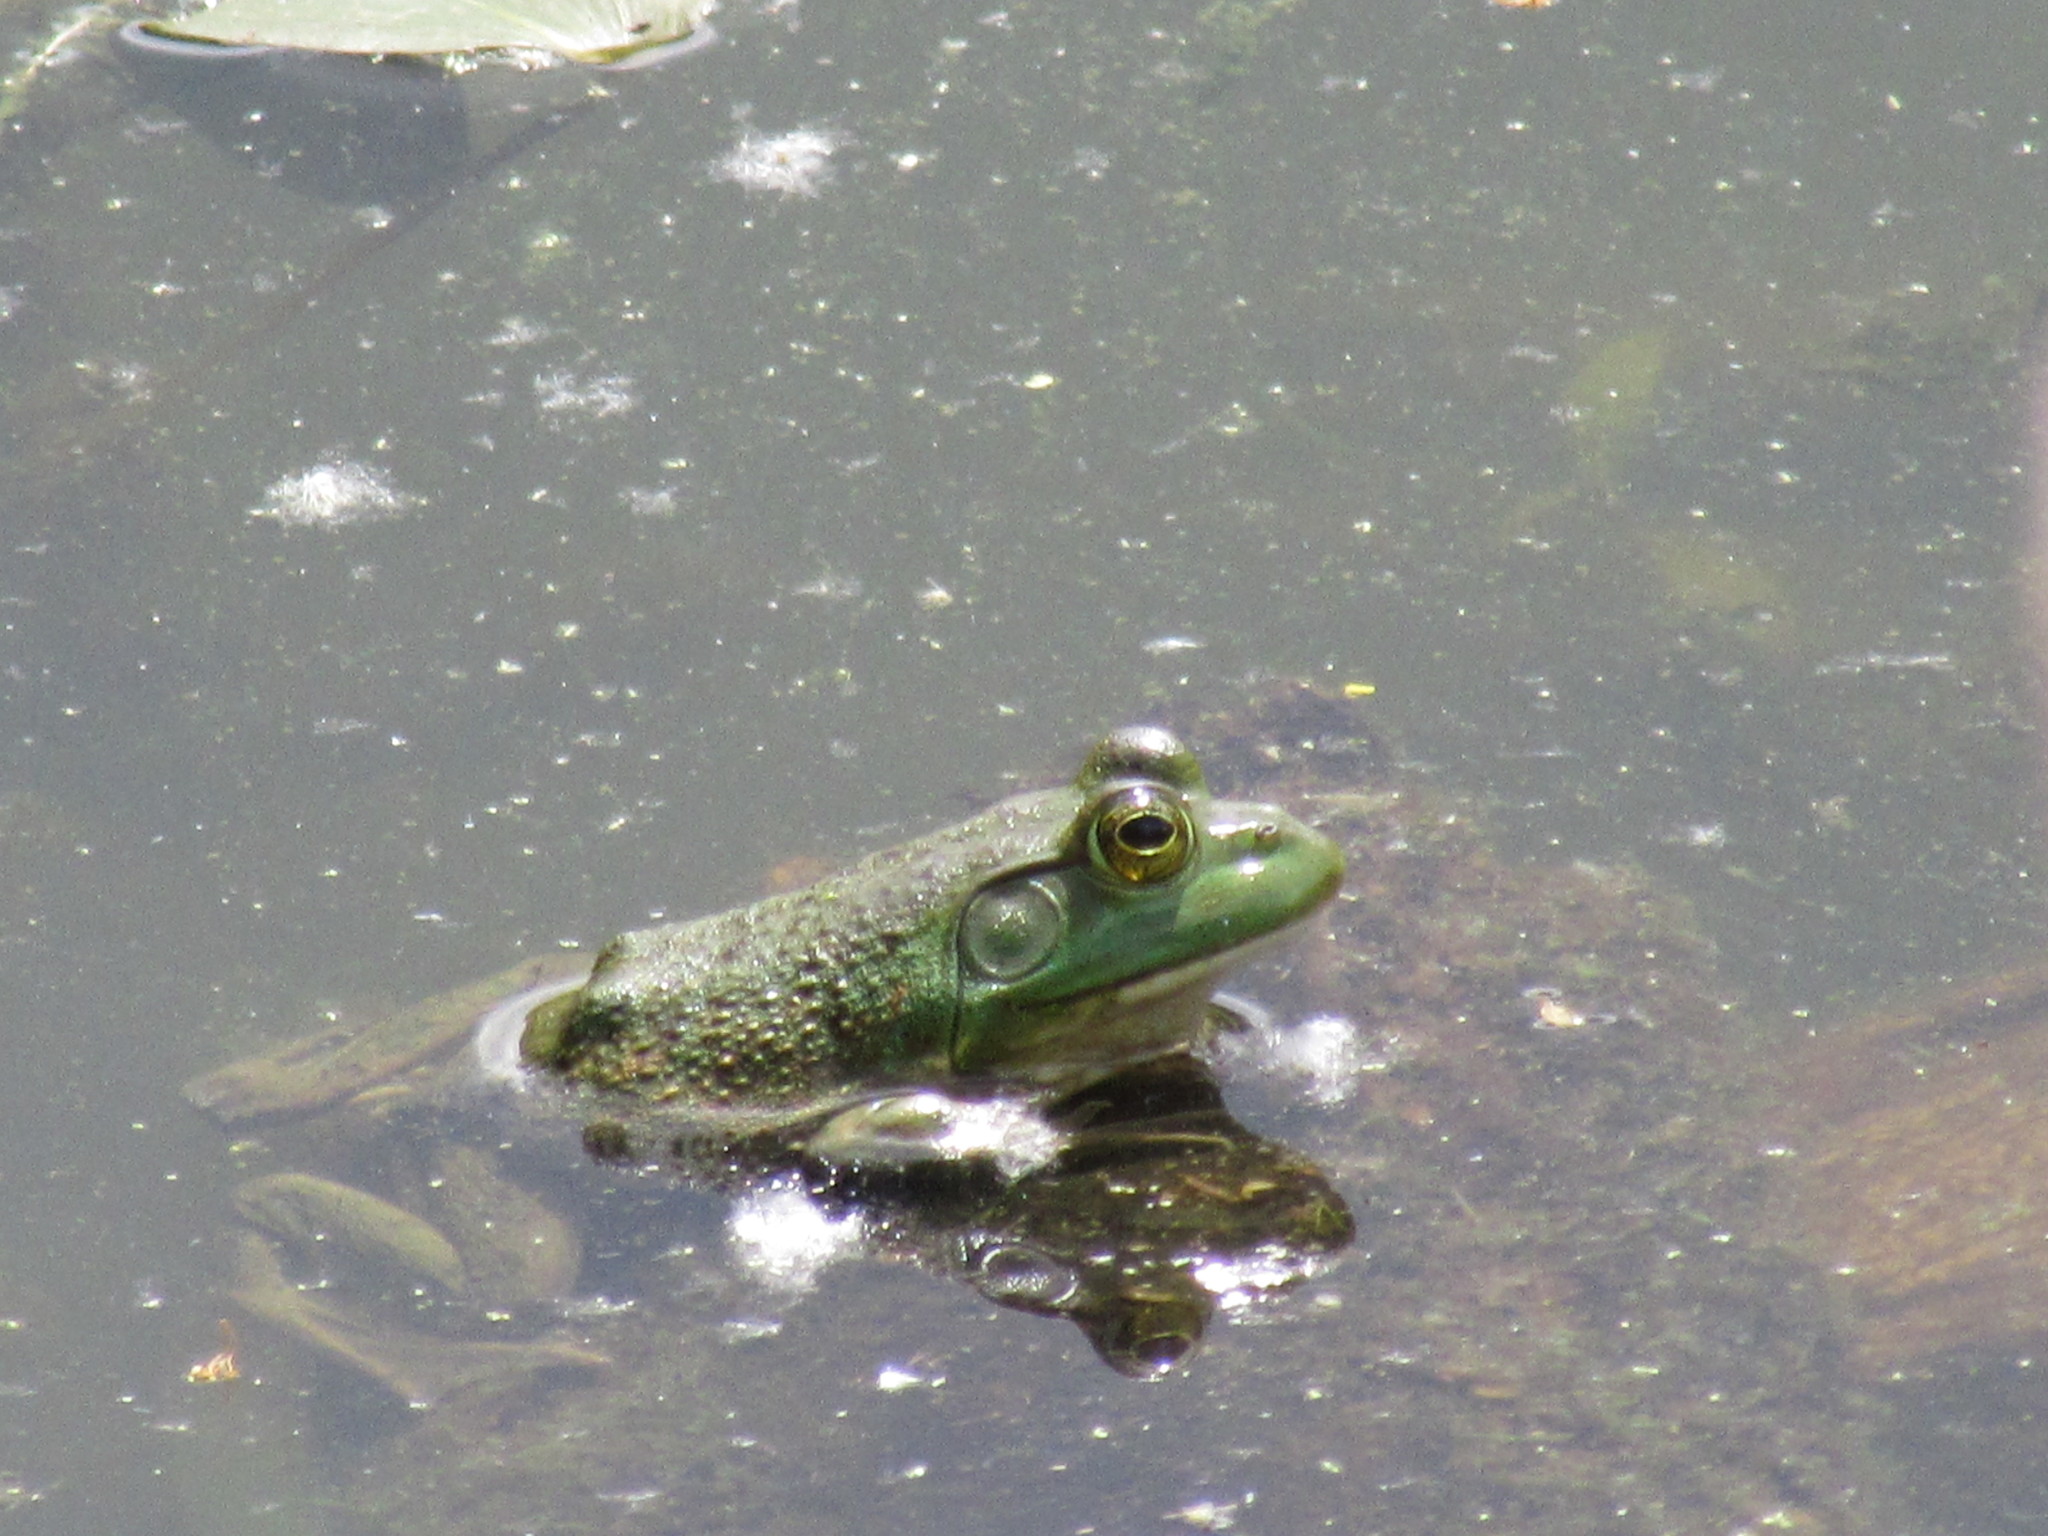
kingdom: Animalia
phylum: Chordata
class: Amphibia
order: Anura
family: Ranidae
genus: Lithobates
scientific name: Lithobates catesbeianus
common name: American bullfrog
